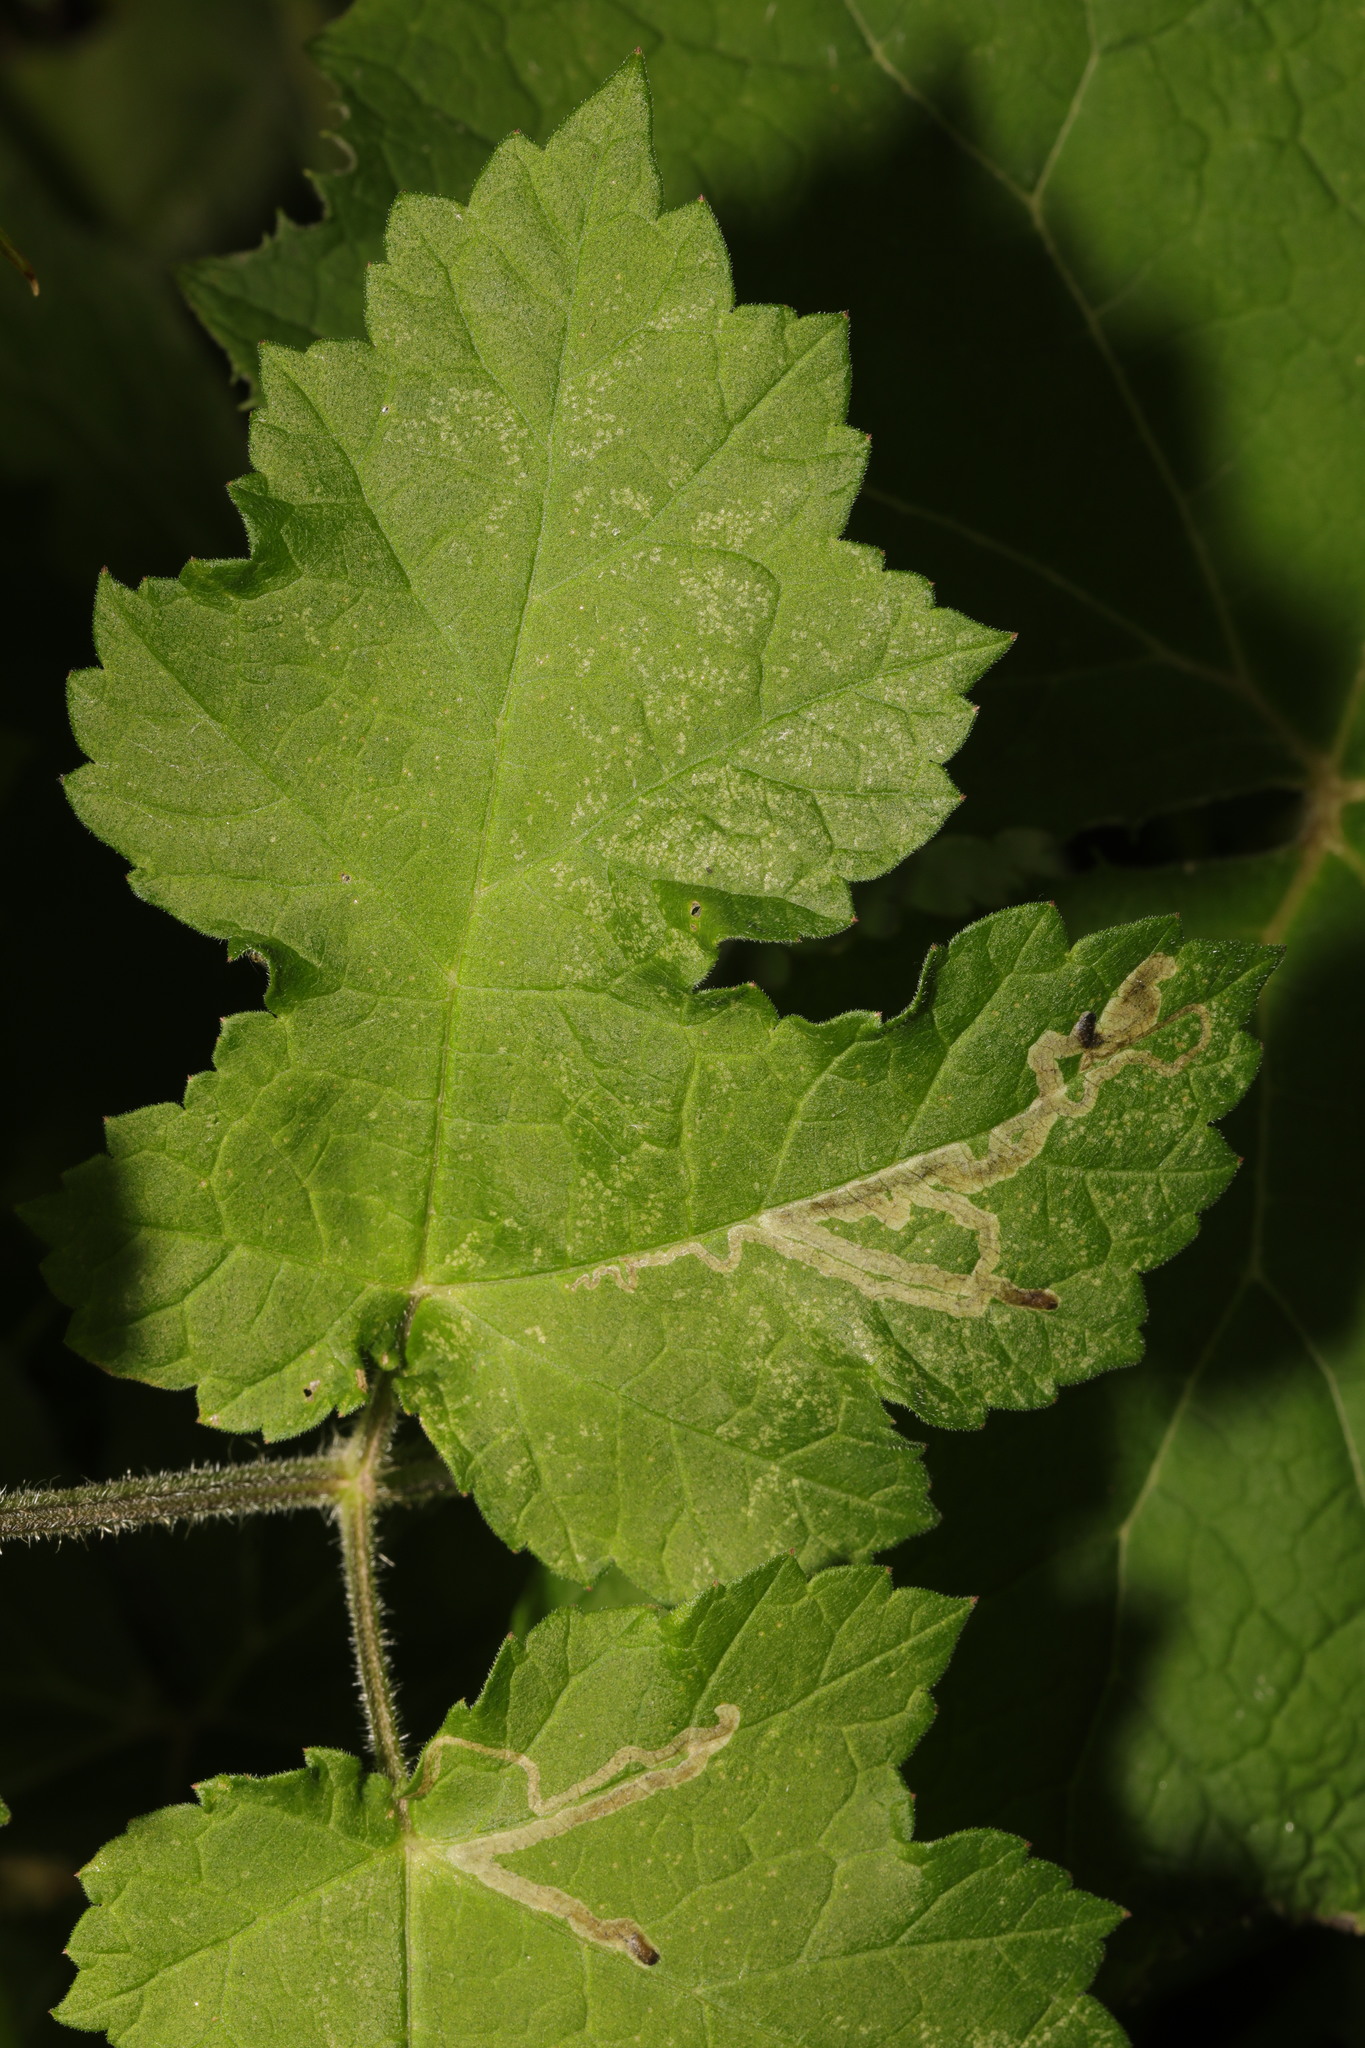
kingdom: Plantae
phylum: Tracheophyta
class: Magnoliopsida
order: Apiales
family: Apiaceae
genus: Heracleum
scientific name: Heracleum sphondylium
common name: Hogweed
